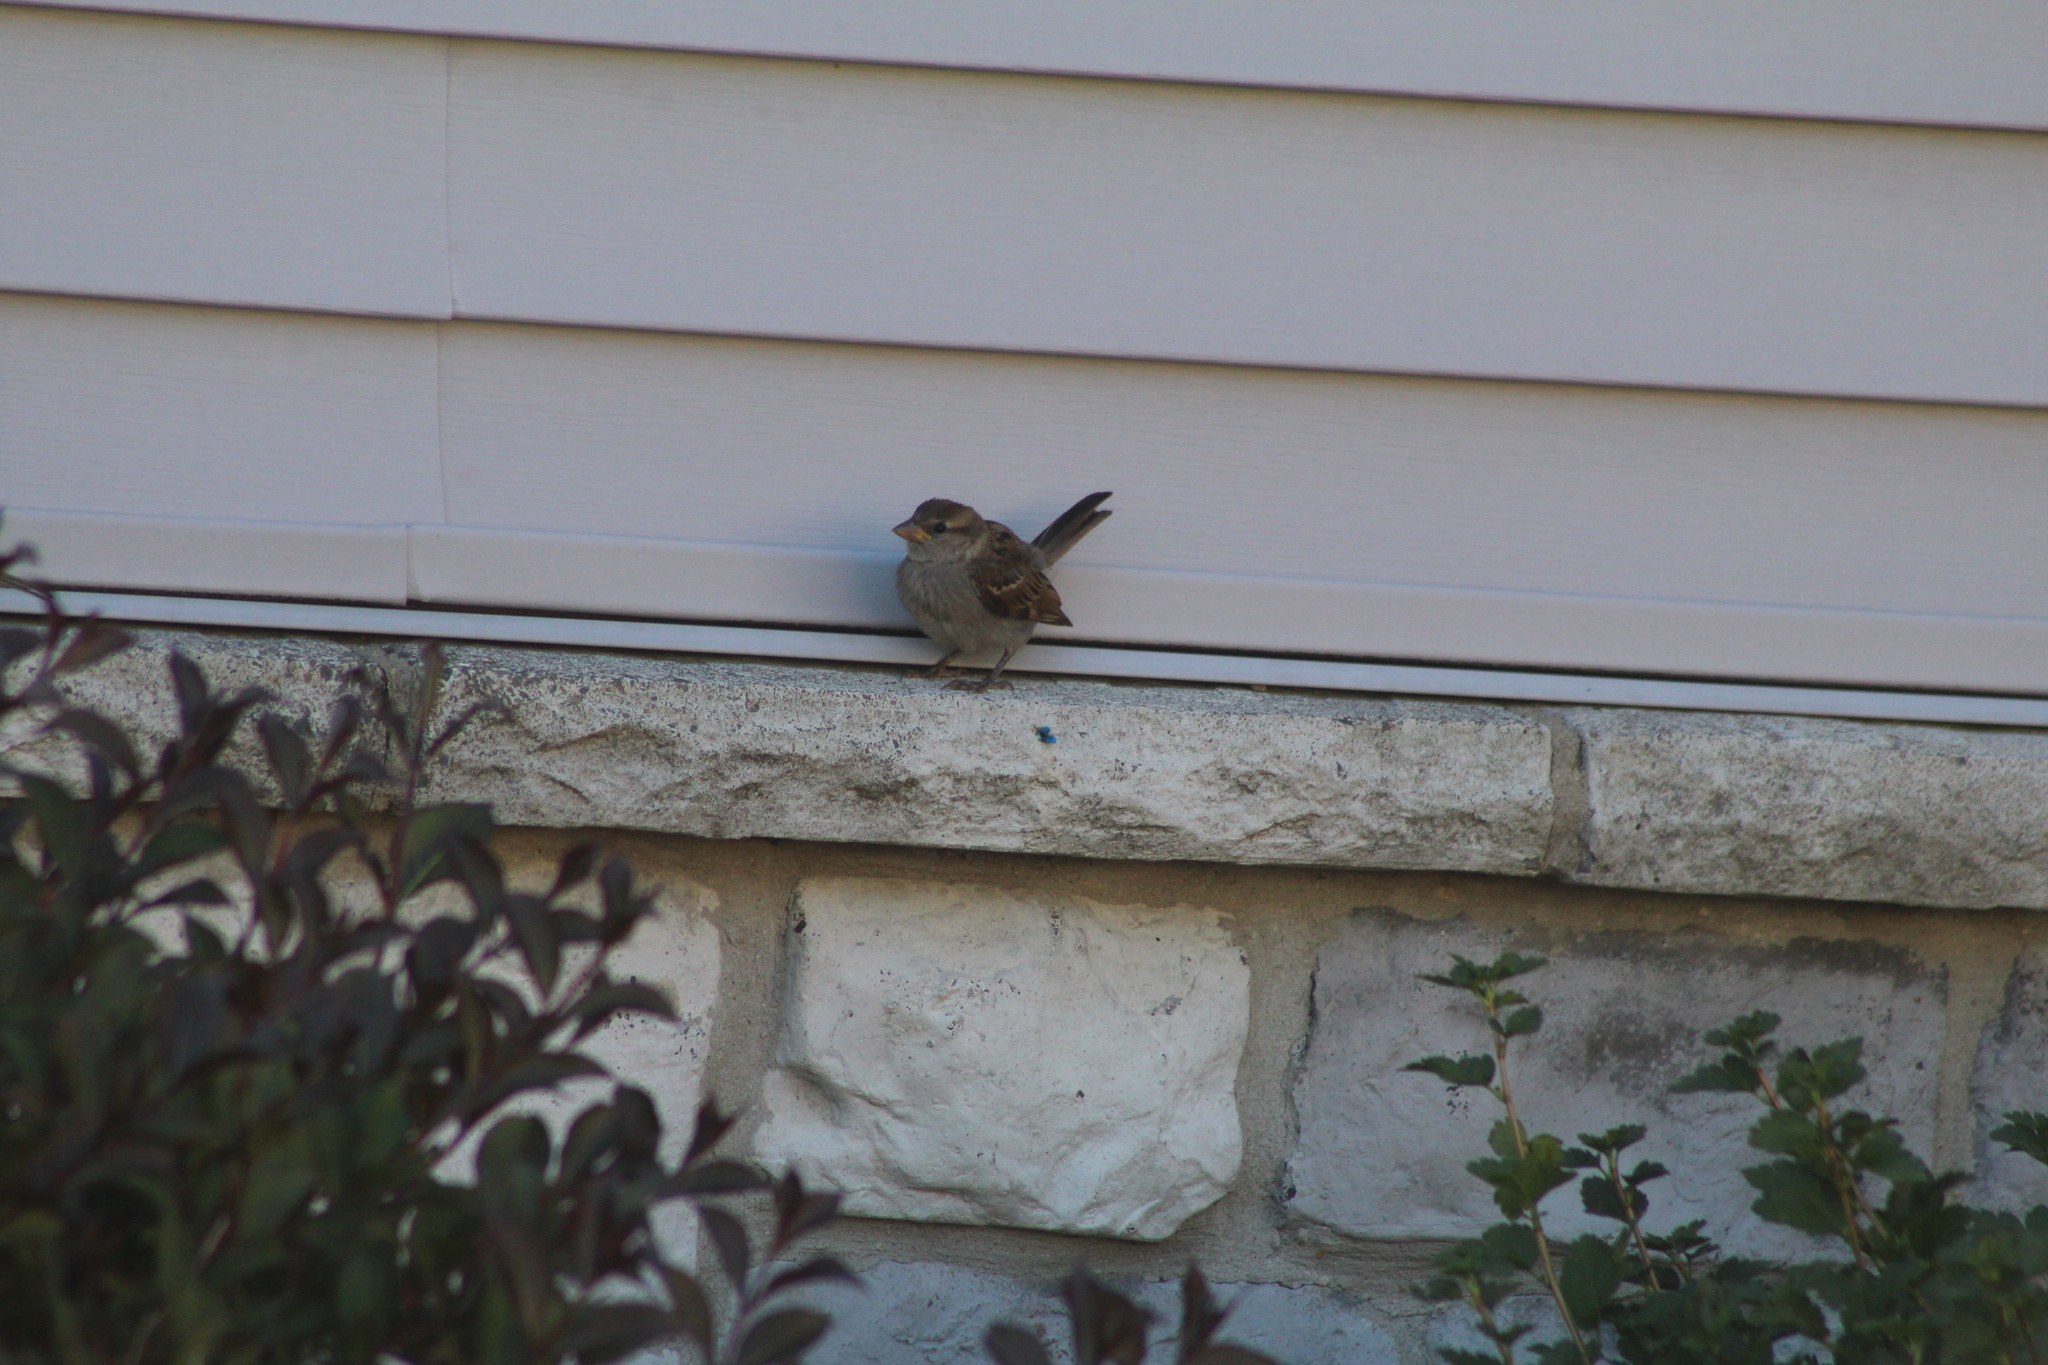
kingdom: Animalia
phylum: Chordata
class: Aves
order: Passeriformes
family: Passeridae
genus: Passer
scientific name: Passer domesticus
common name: House sparrow
